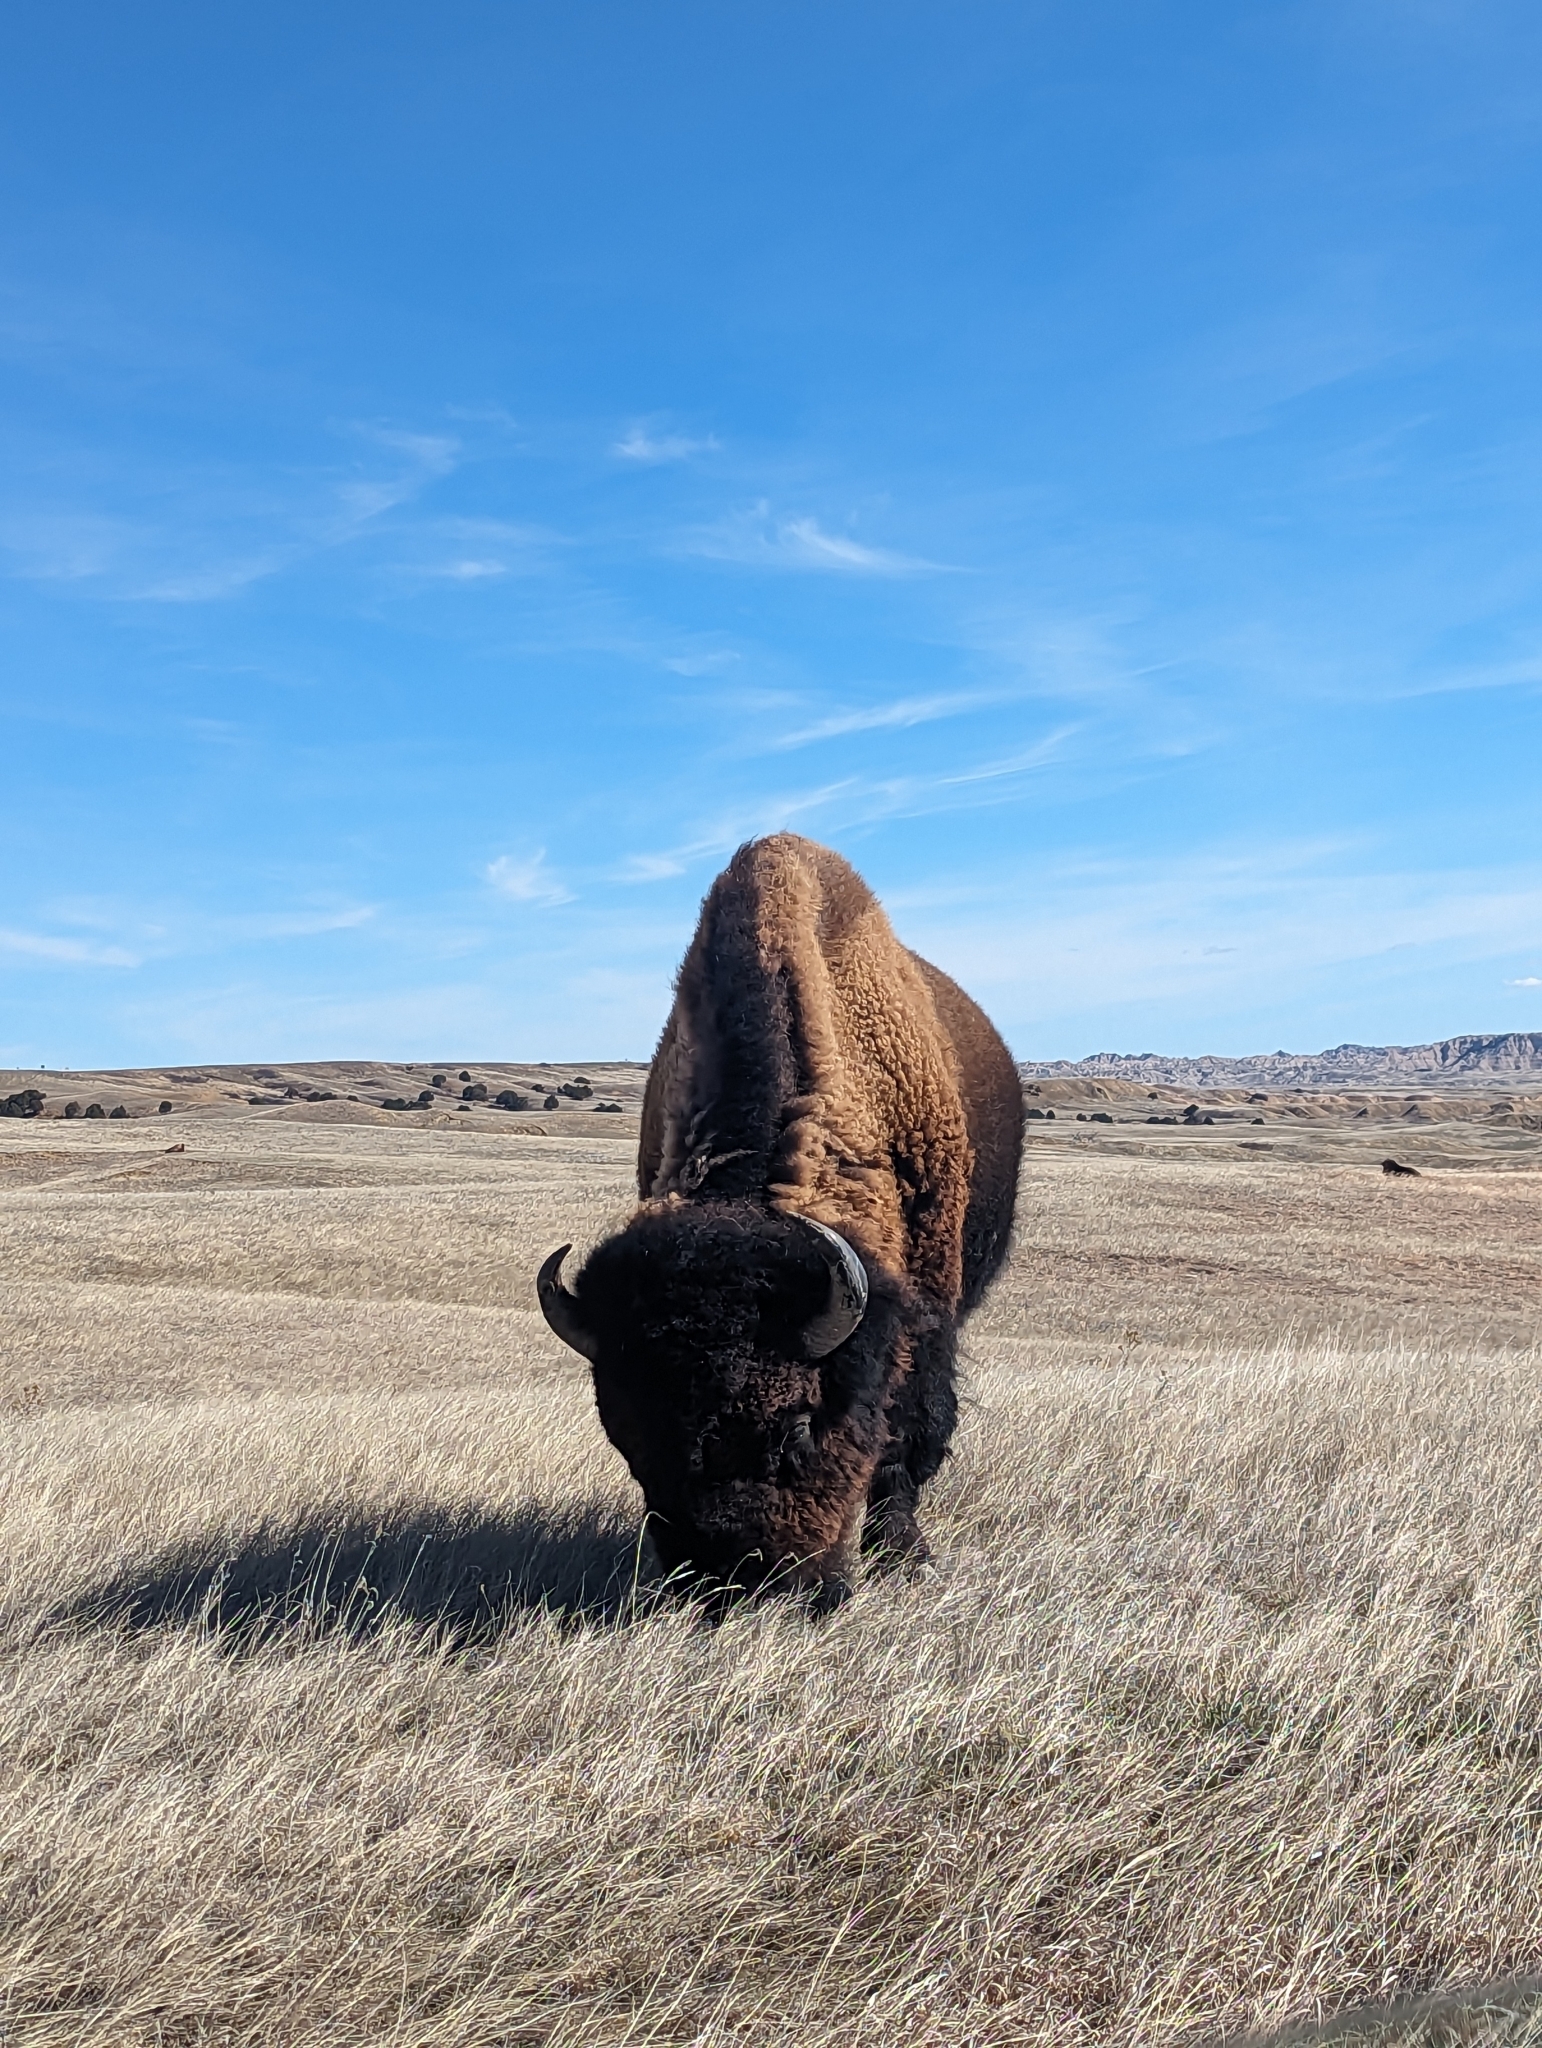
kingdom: Animalia
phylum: Chordata
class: Mammalia
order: Artiodactyla
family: Bovidae
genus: Bison
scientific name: Bison bison
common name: American bison
